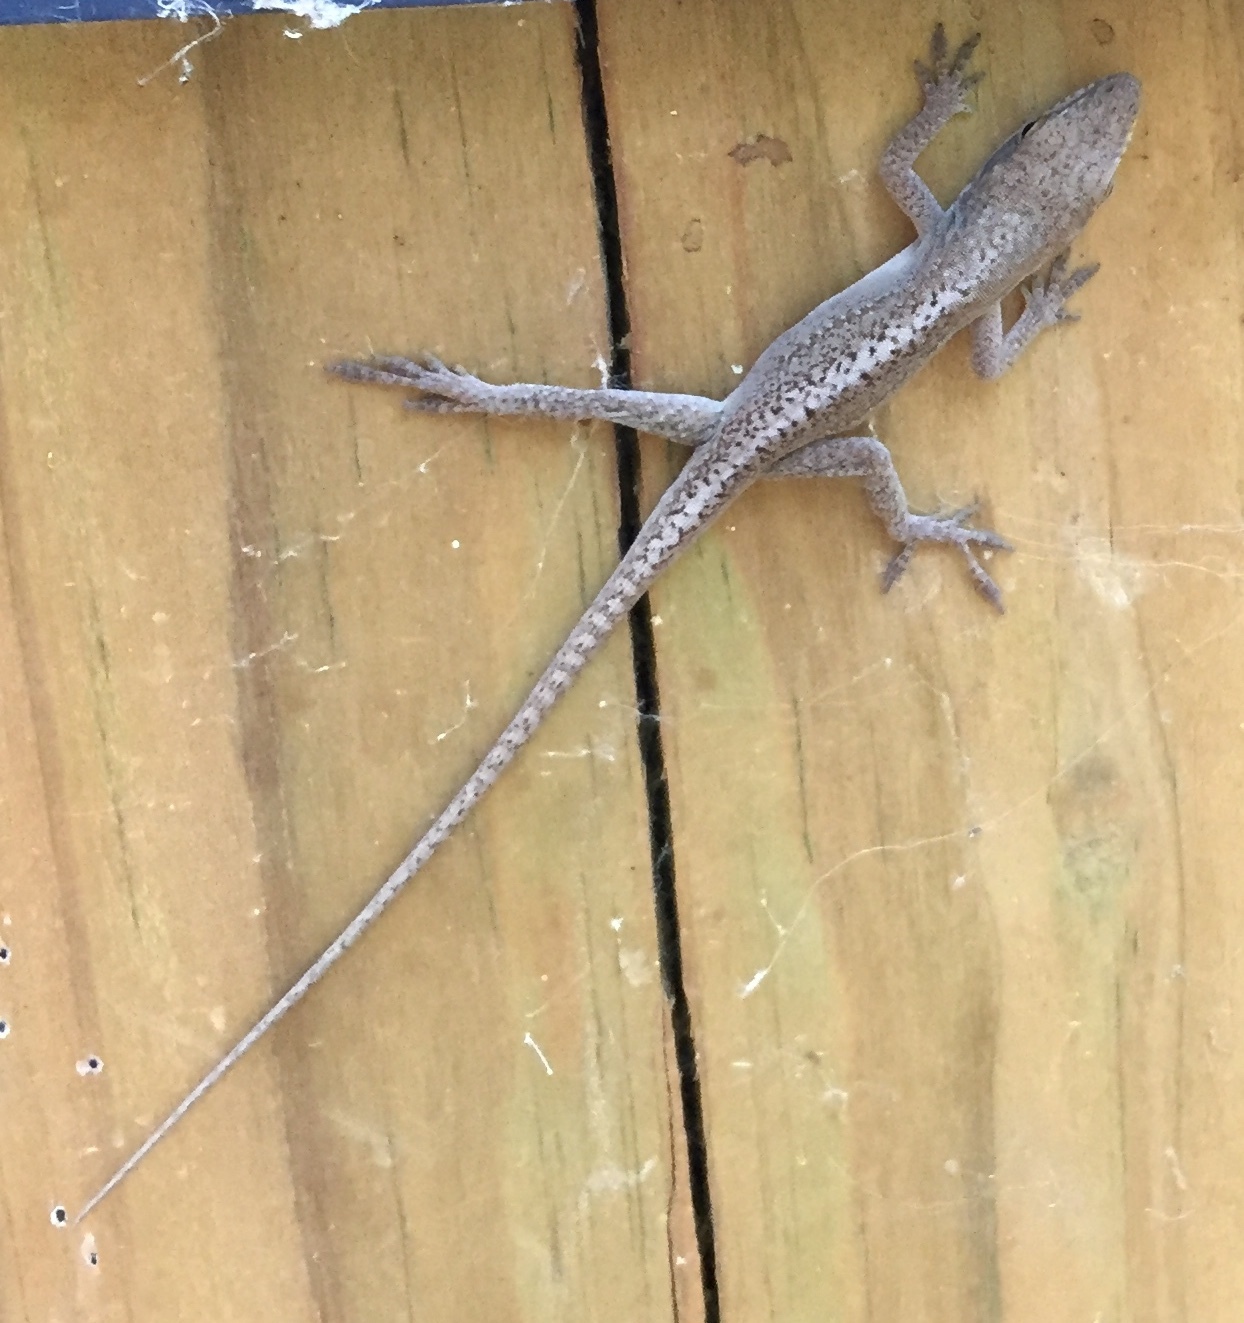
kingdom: Animalia
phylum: Chordata
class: Squamata
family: Dactyloidae
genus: Anolis
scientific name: Anolis carolinensis
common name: Green anole
